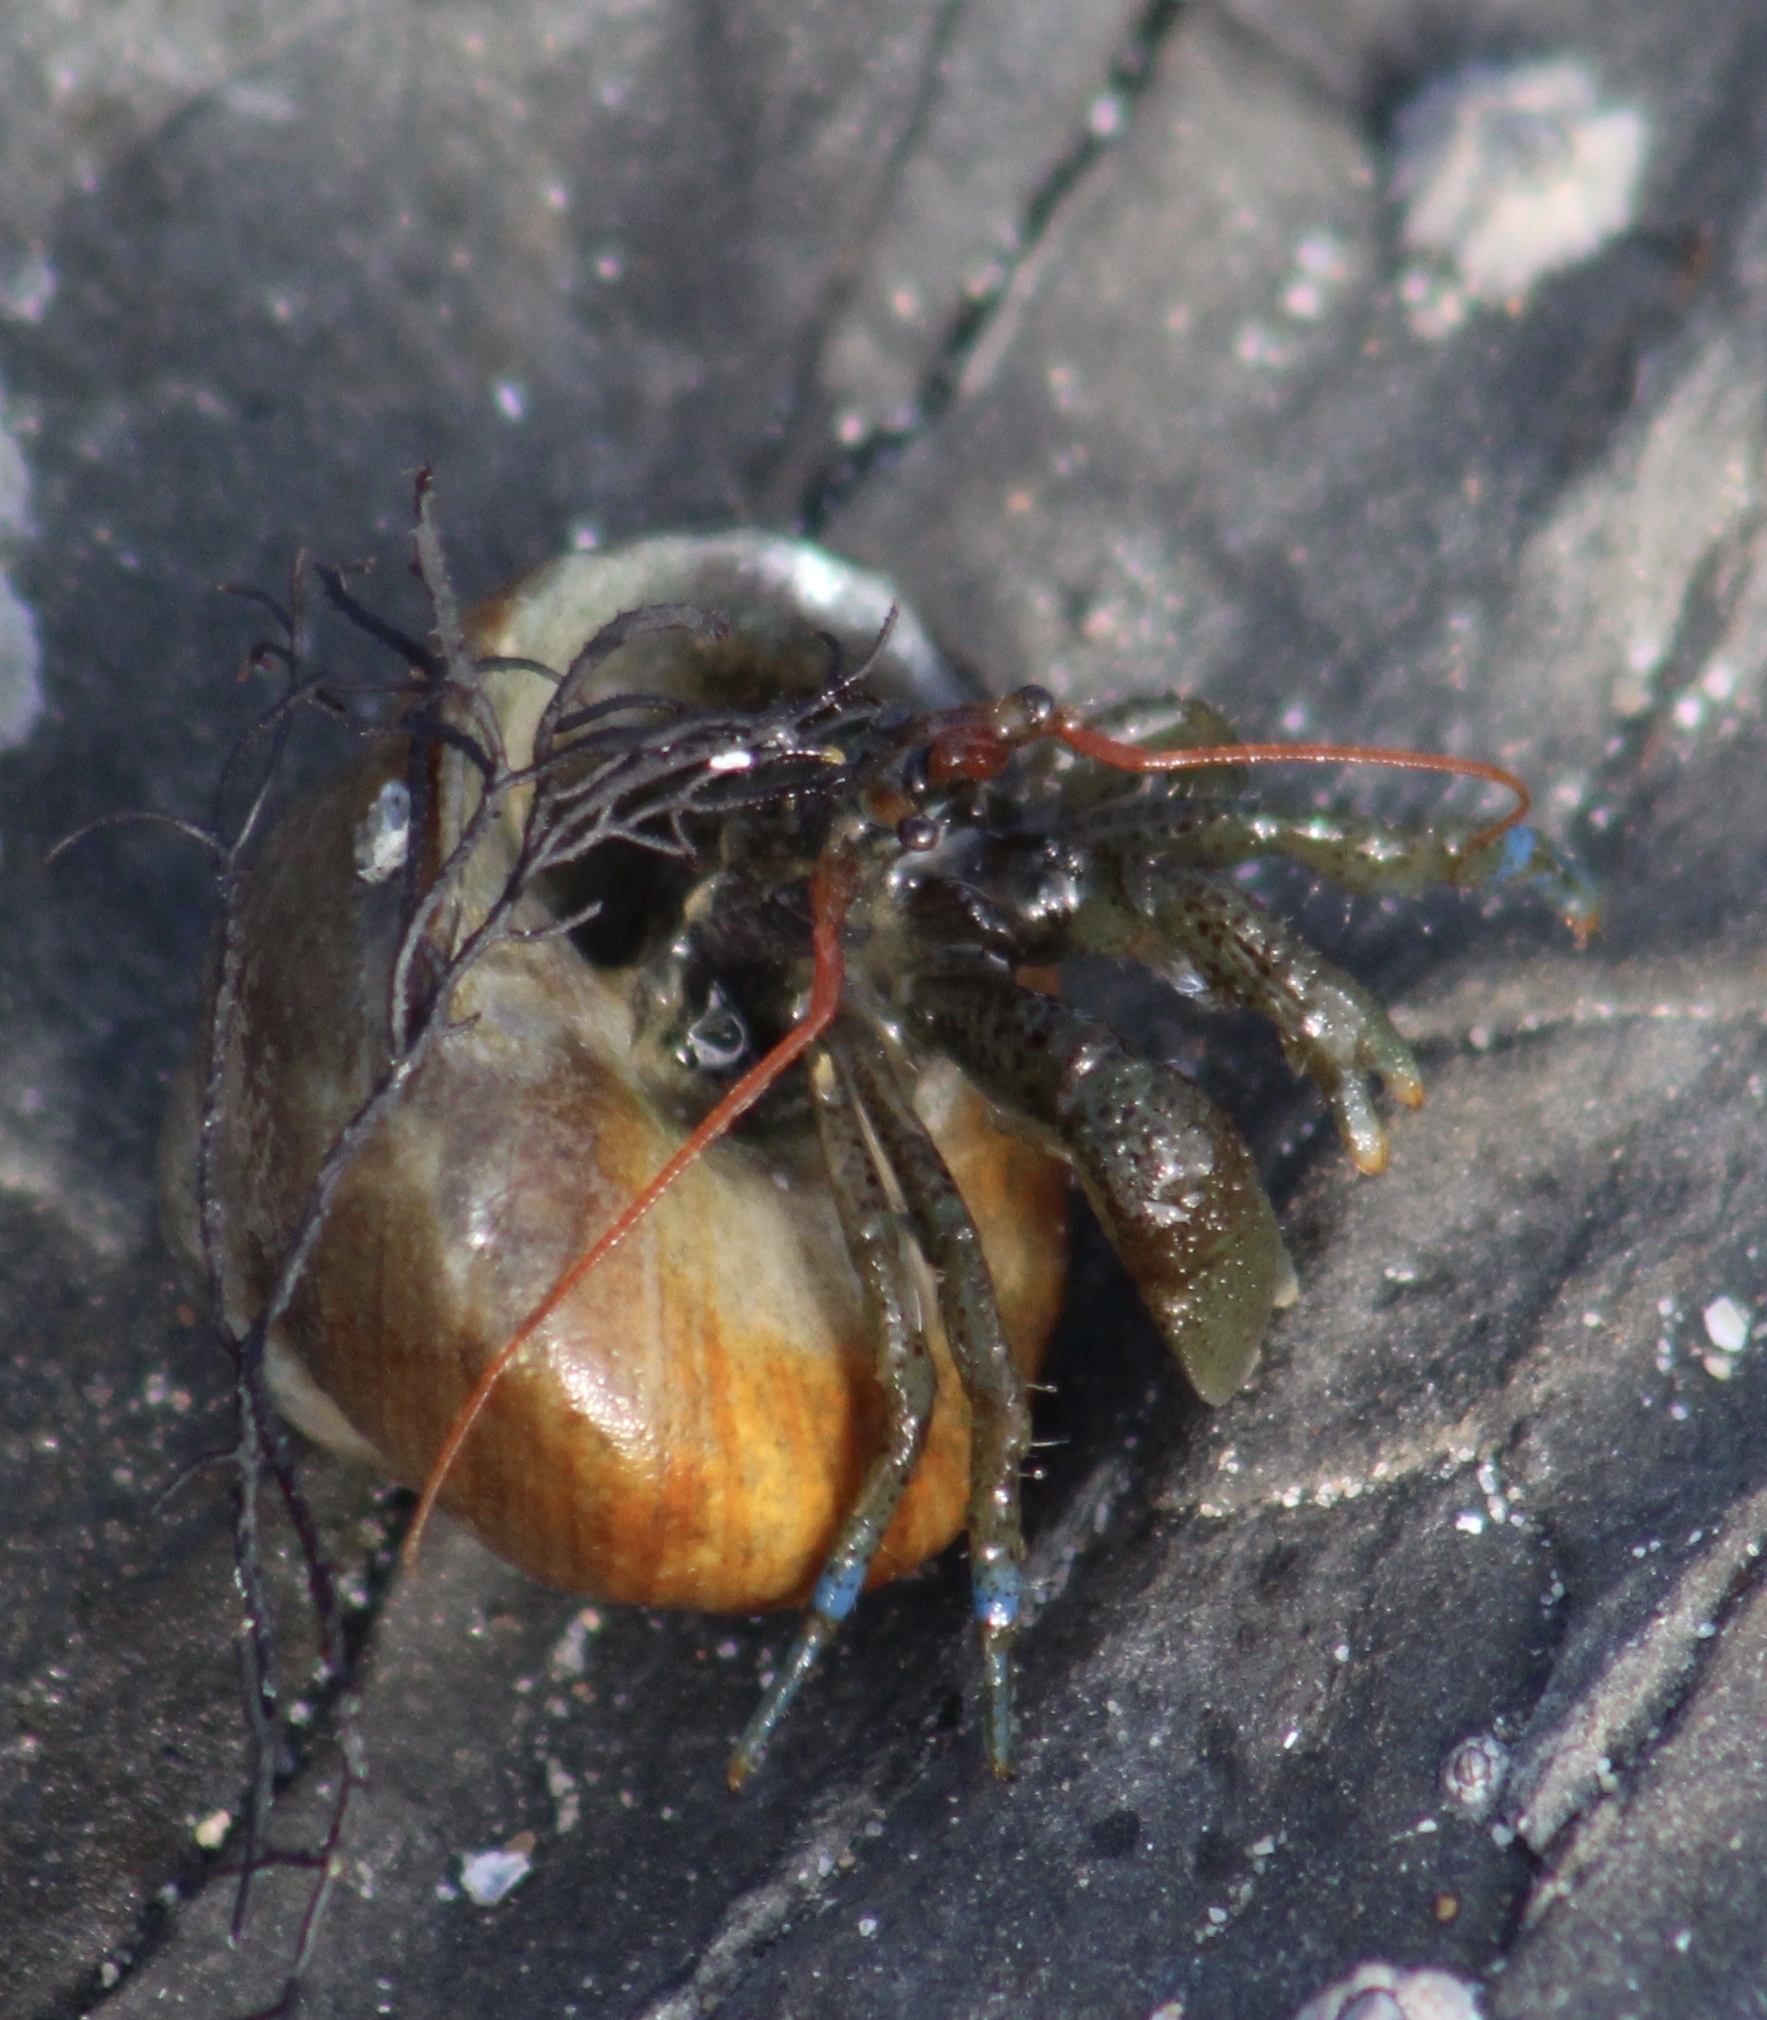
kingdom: Animalia
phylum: Arthropoda
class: Malacostraca
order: Decapoda
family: Paguridae
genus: Pagurus
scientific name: Pagurus samuelis
